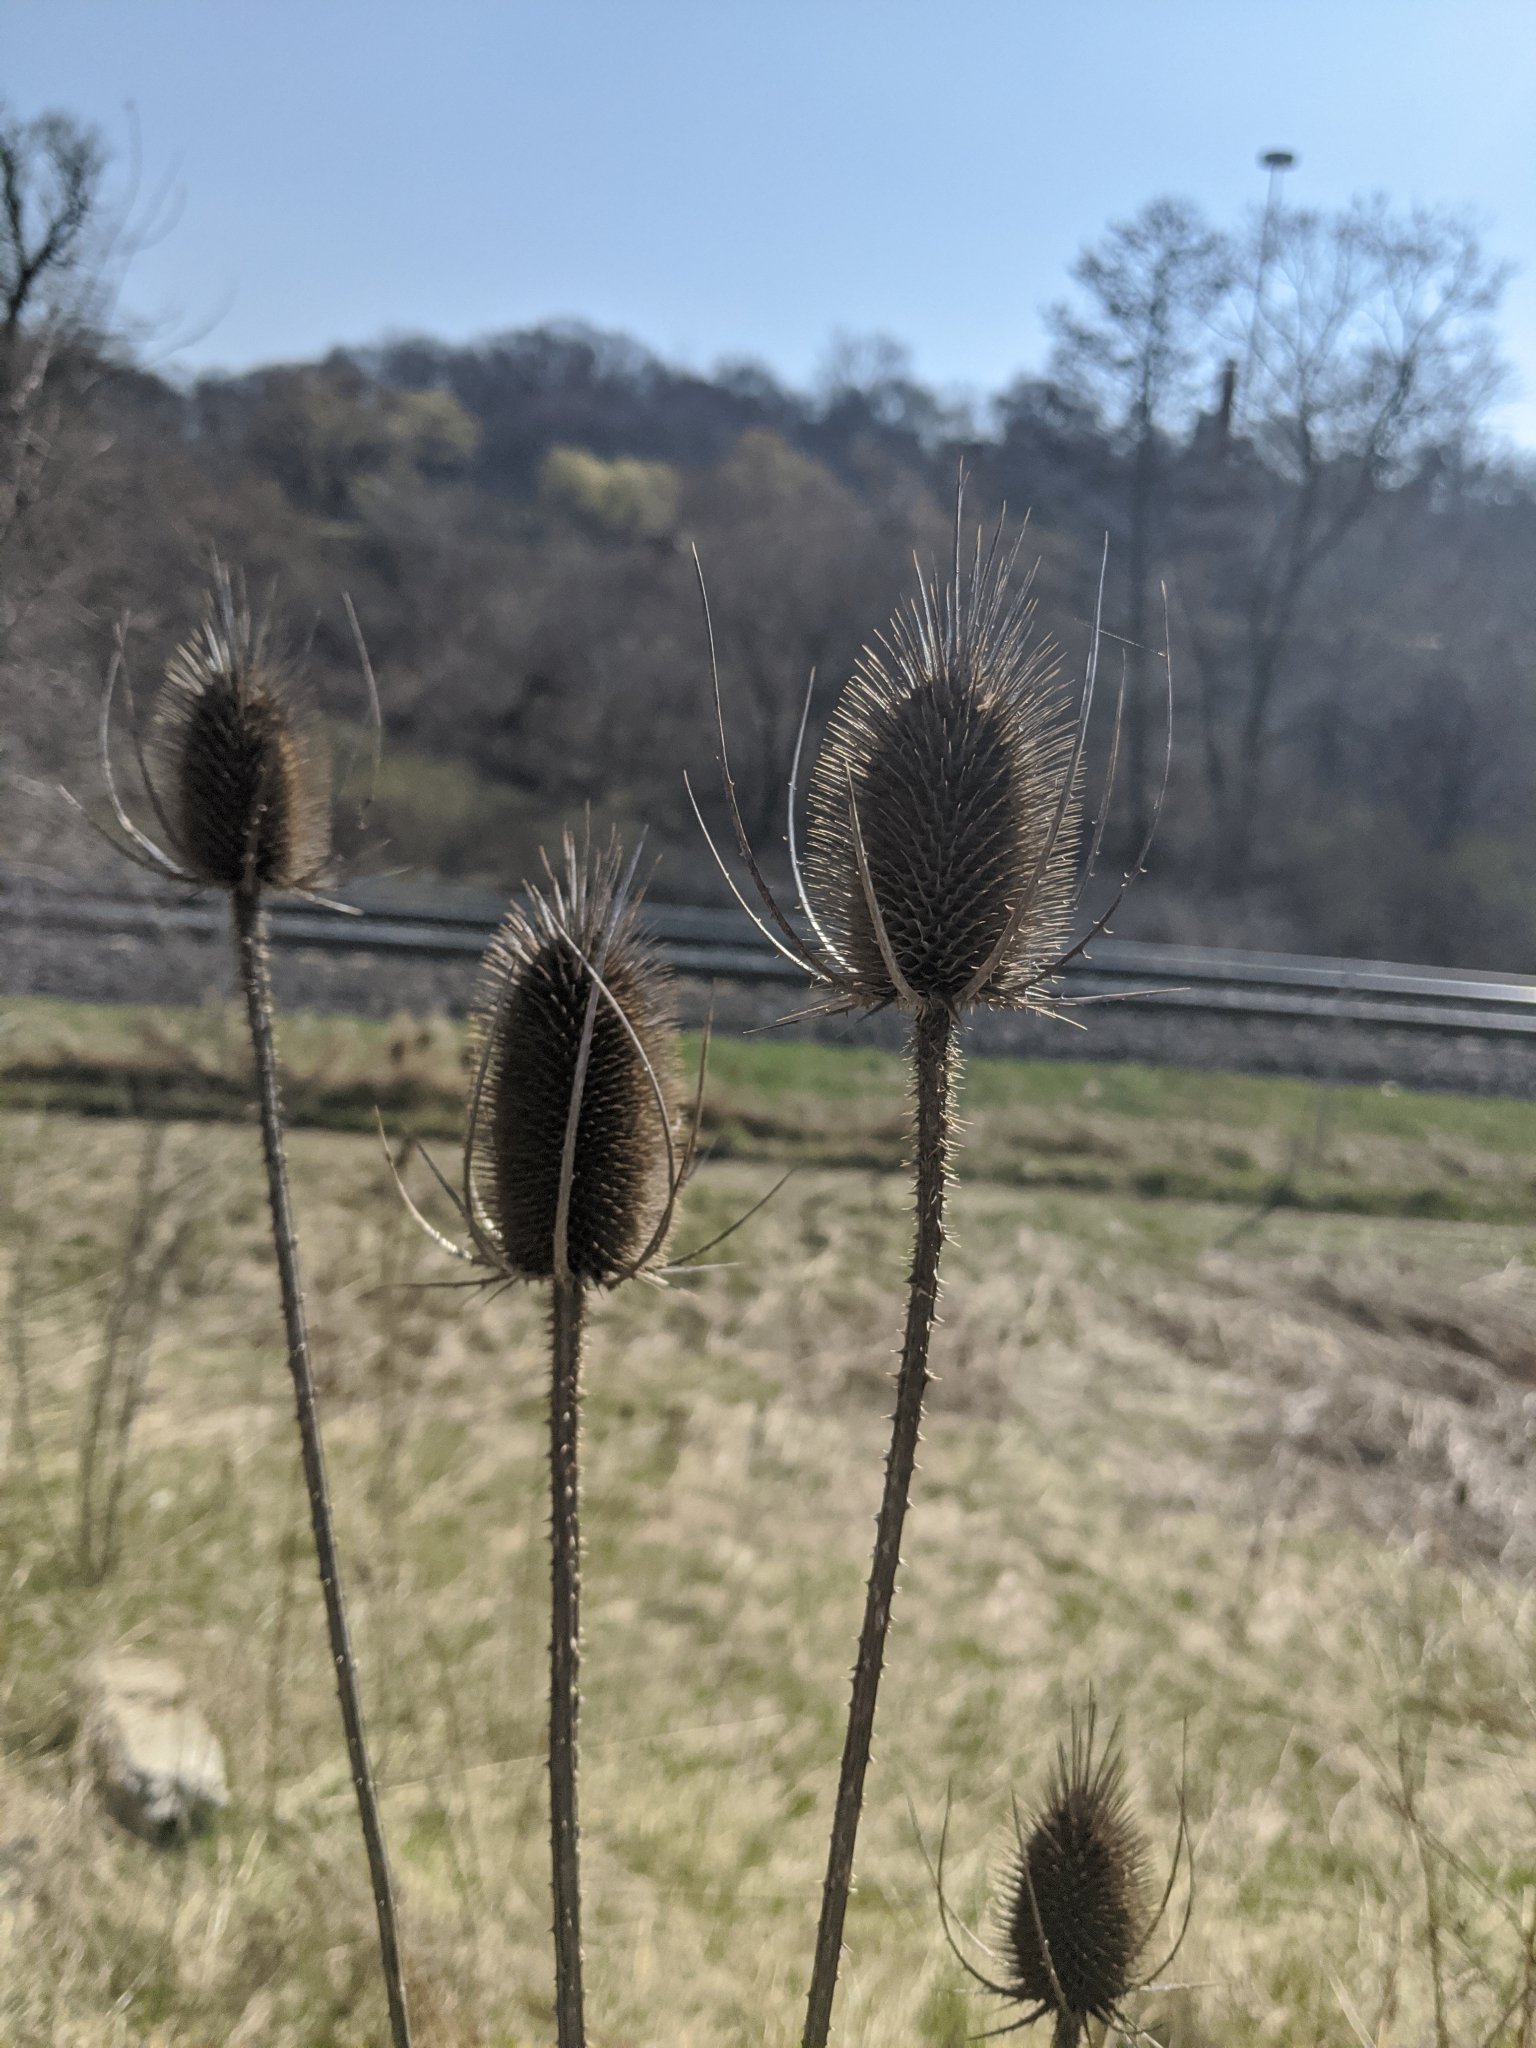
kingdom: Plantae
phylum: Tracheophyta
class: Magnoliopsida
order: Dipsacales
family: Caprifoliaceae
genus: Dipsacus
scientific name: Dipsacus fullonum
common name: Teasel
